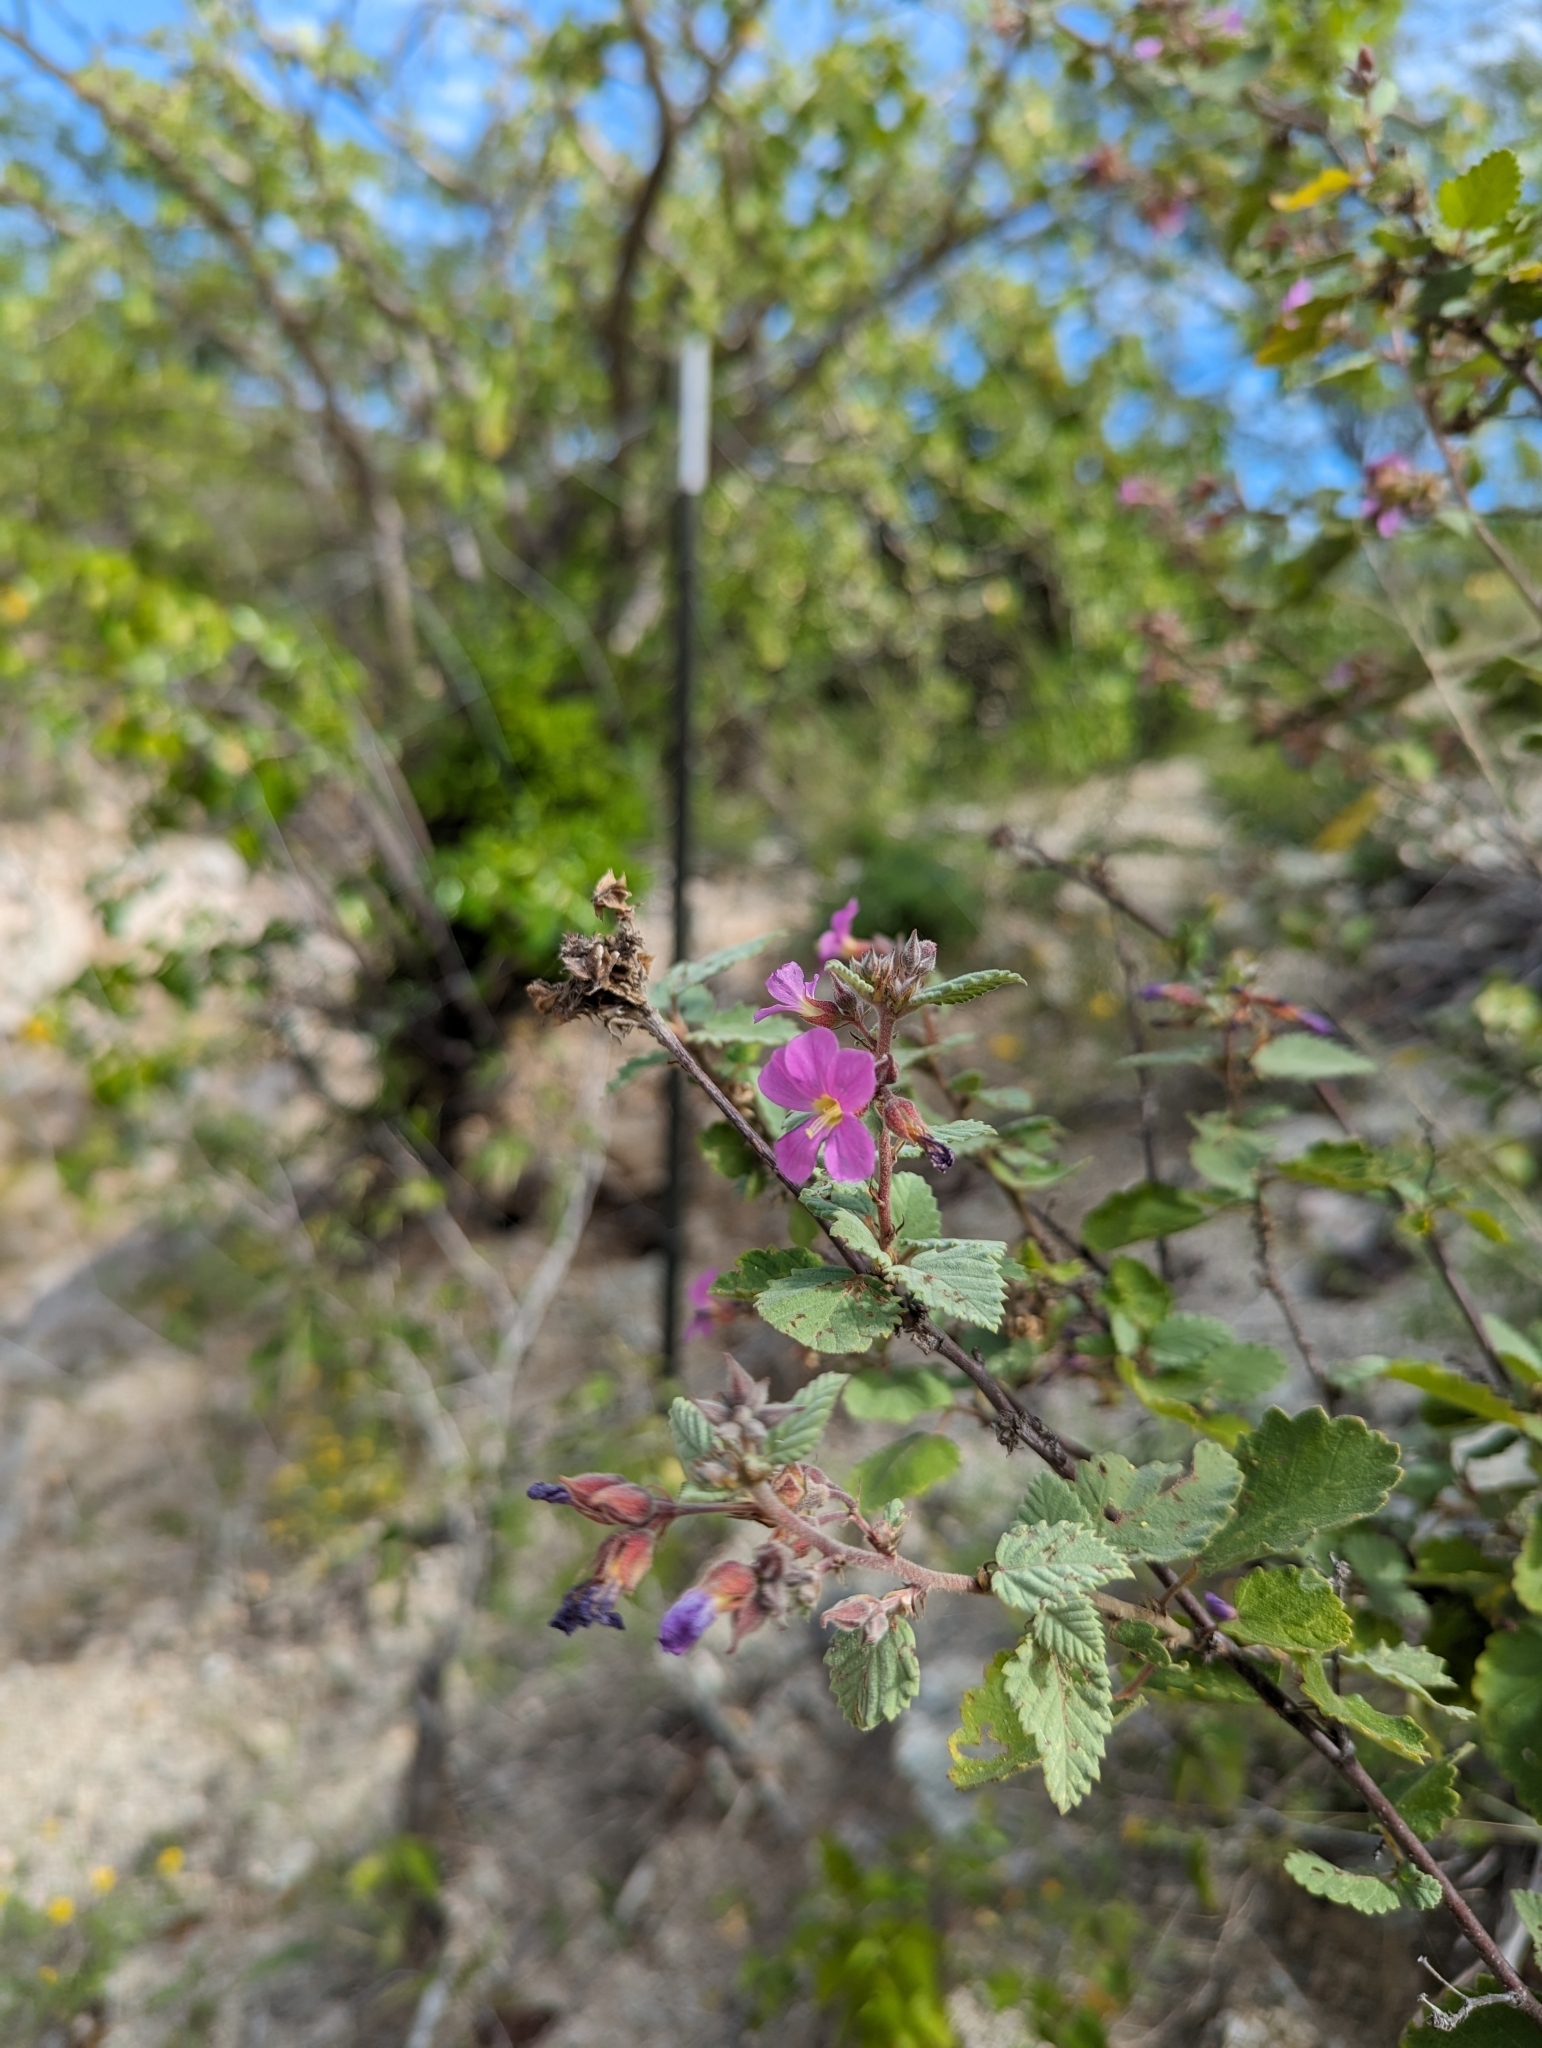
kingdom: Plantae
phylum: Tracheophyta
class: Magnoliopsida
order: Malvales
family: Malvaceae
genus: Melochia
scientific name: Melochia tomentosa
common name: Black torch
